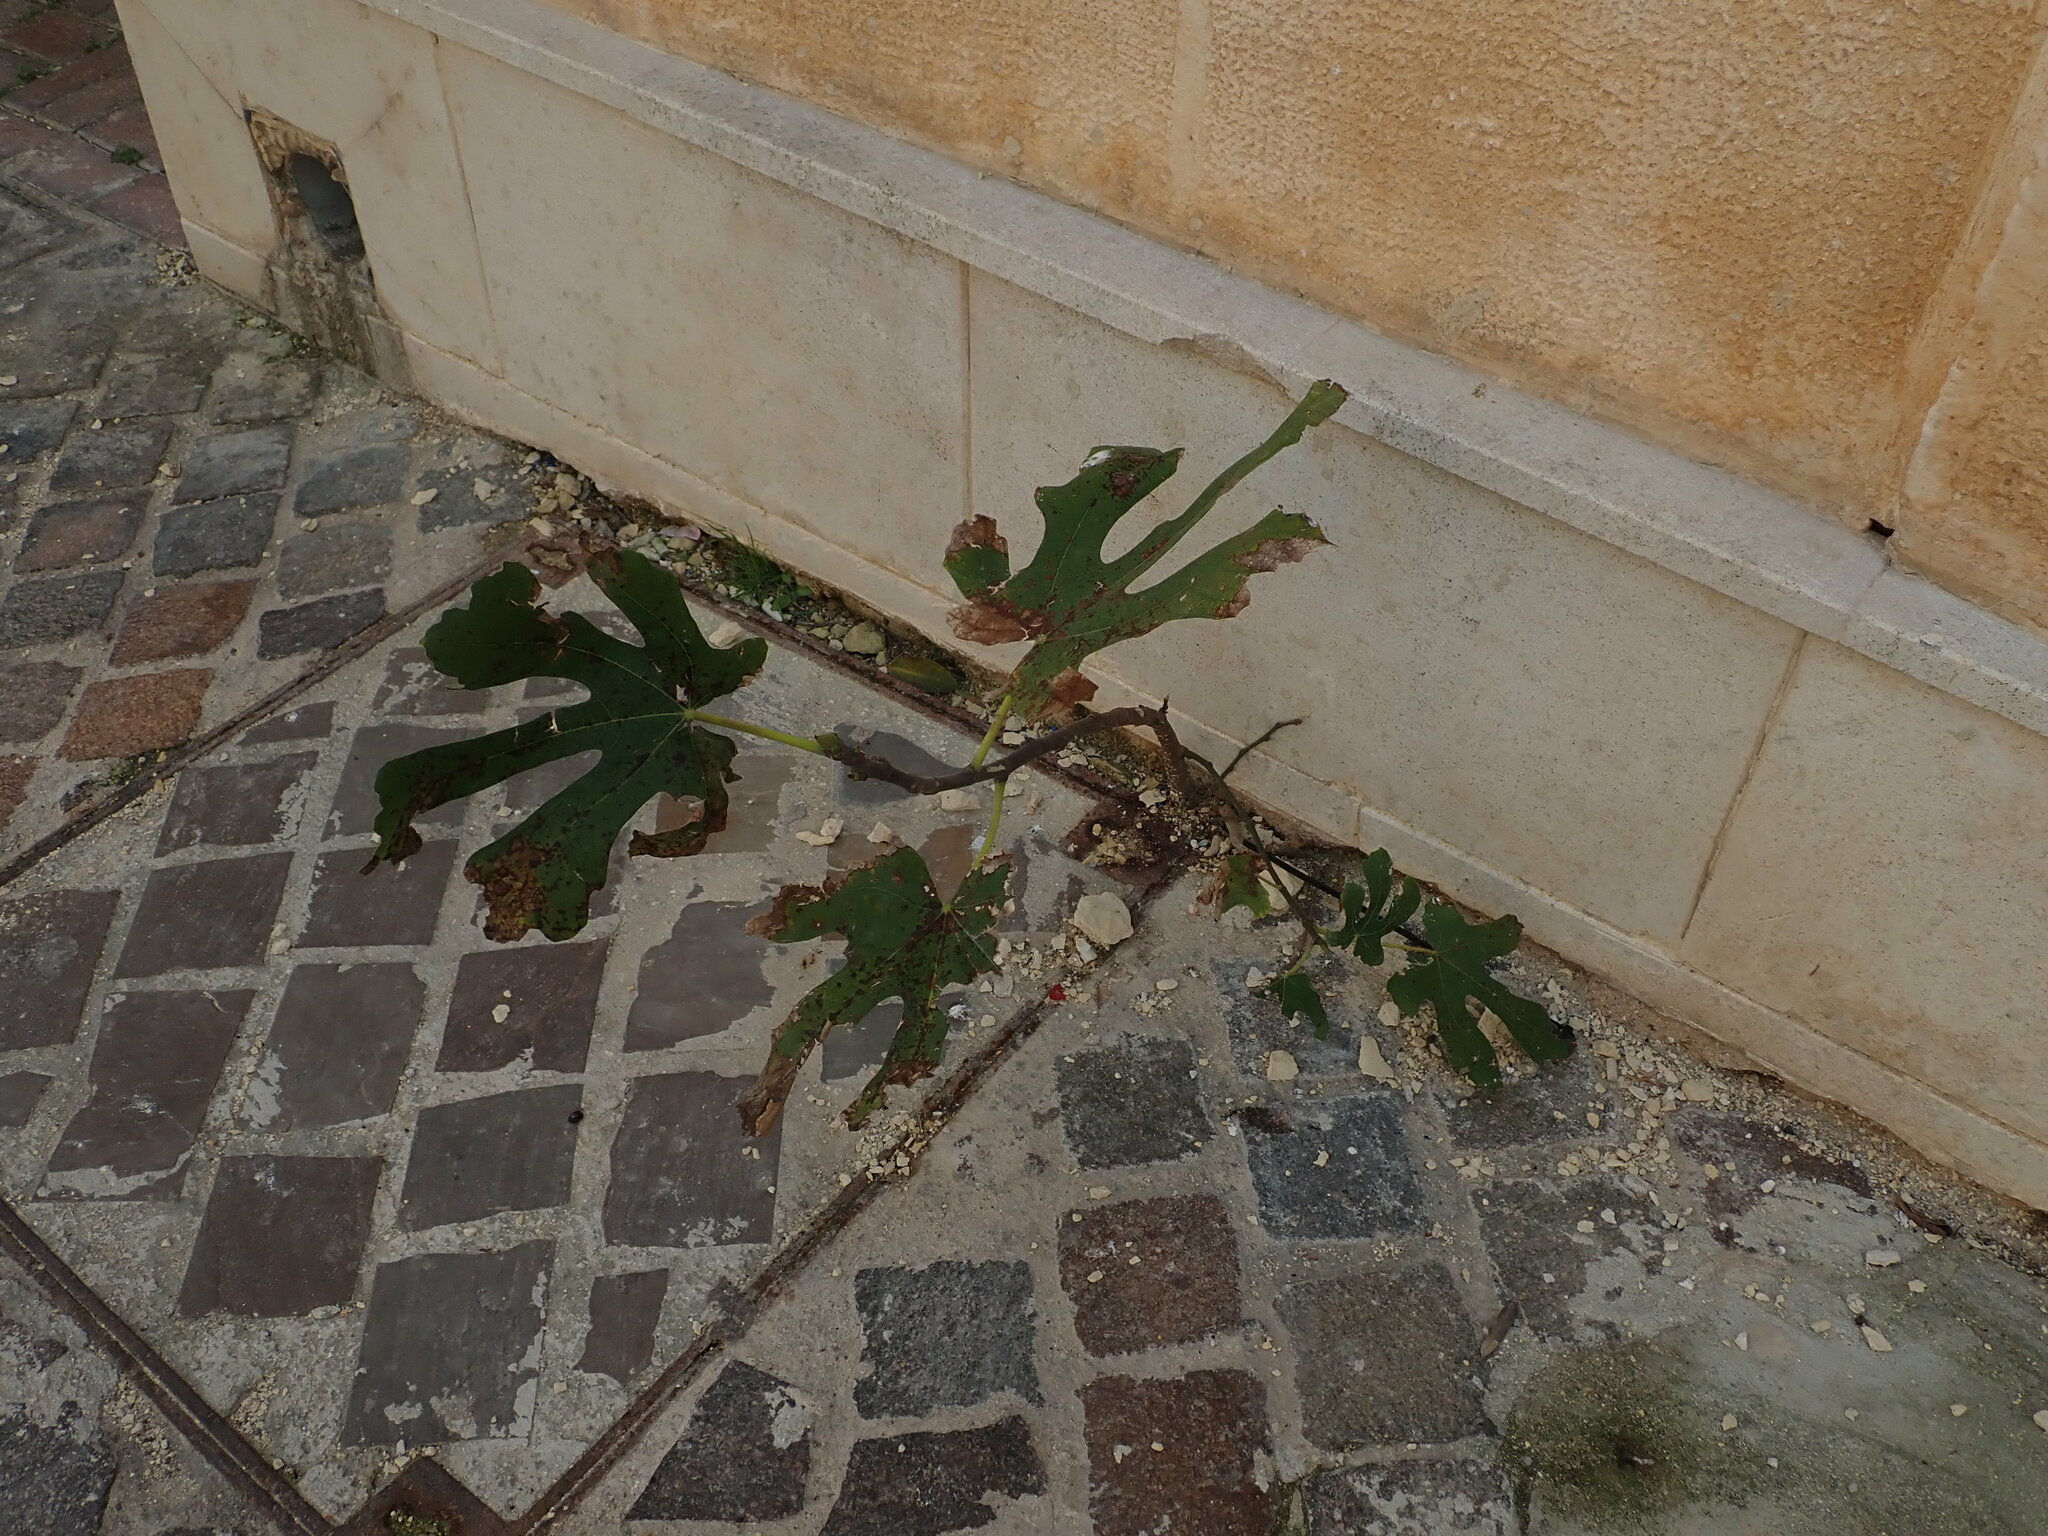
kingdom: Plantae
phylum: Tracheophyta
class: Magnoliopsida
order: Rosales
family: Moraceae
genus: Ficus
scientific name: Ficus carica
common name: Fig
